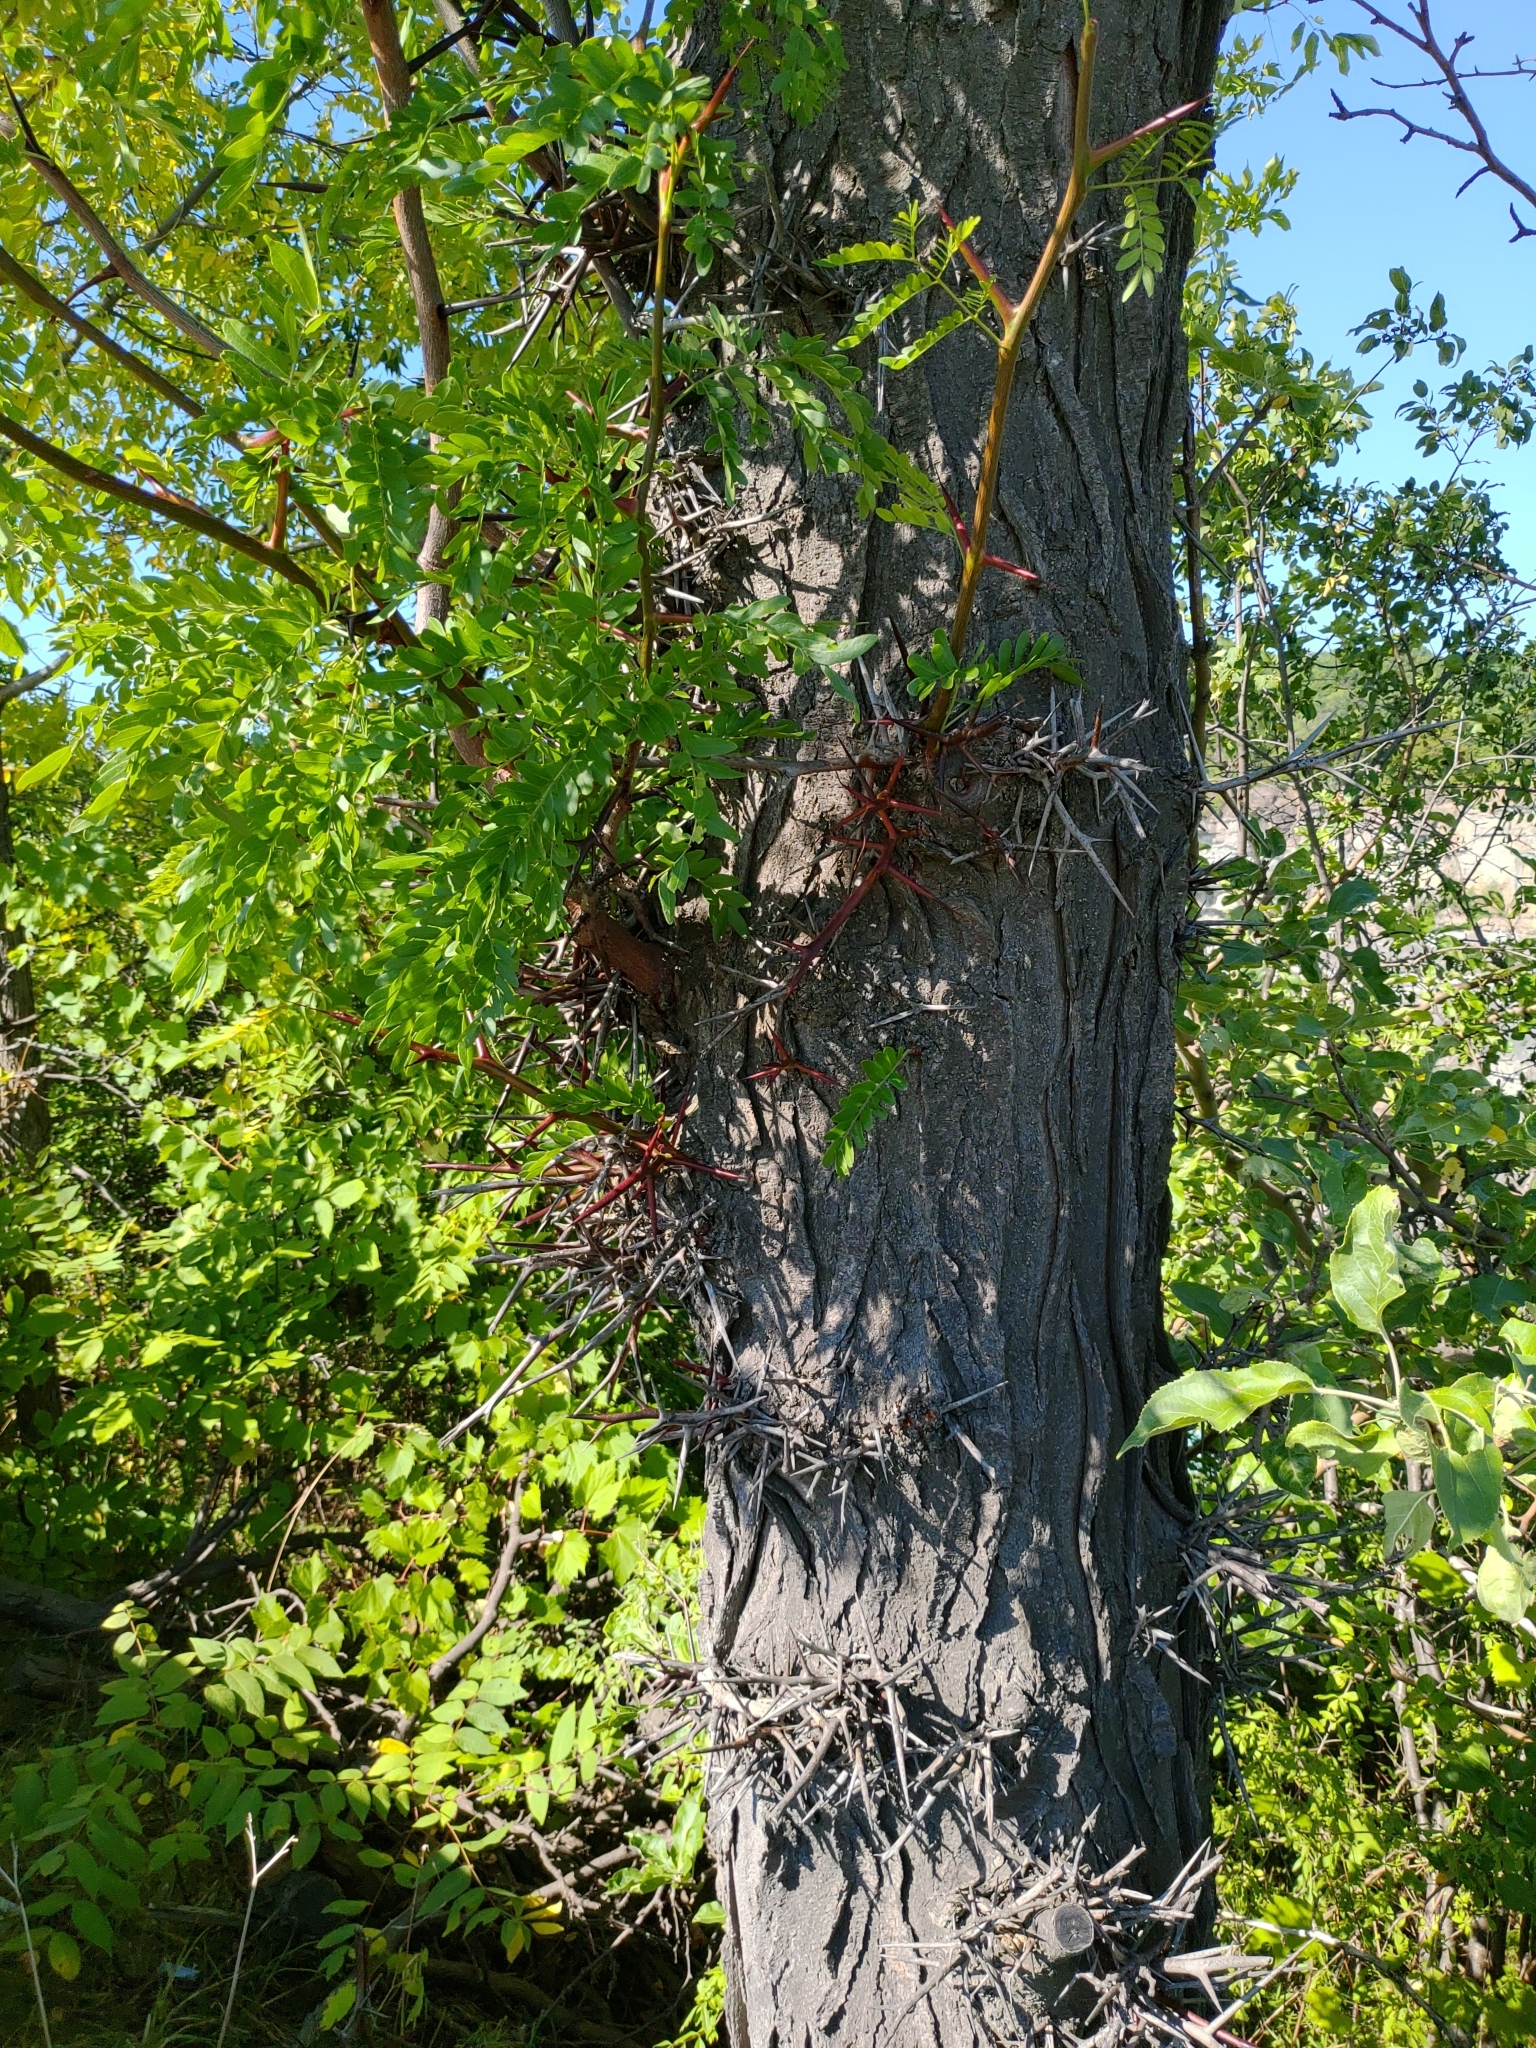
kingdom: Plantae
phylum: Tracheophyta
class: Magnoliopsida
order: Fabales
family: Fabaceae
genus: Gleditsia
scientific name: Gleditsia triacanthos
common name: Common honeylocust
